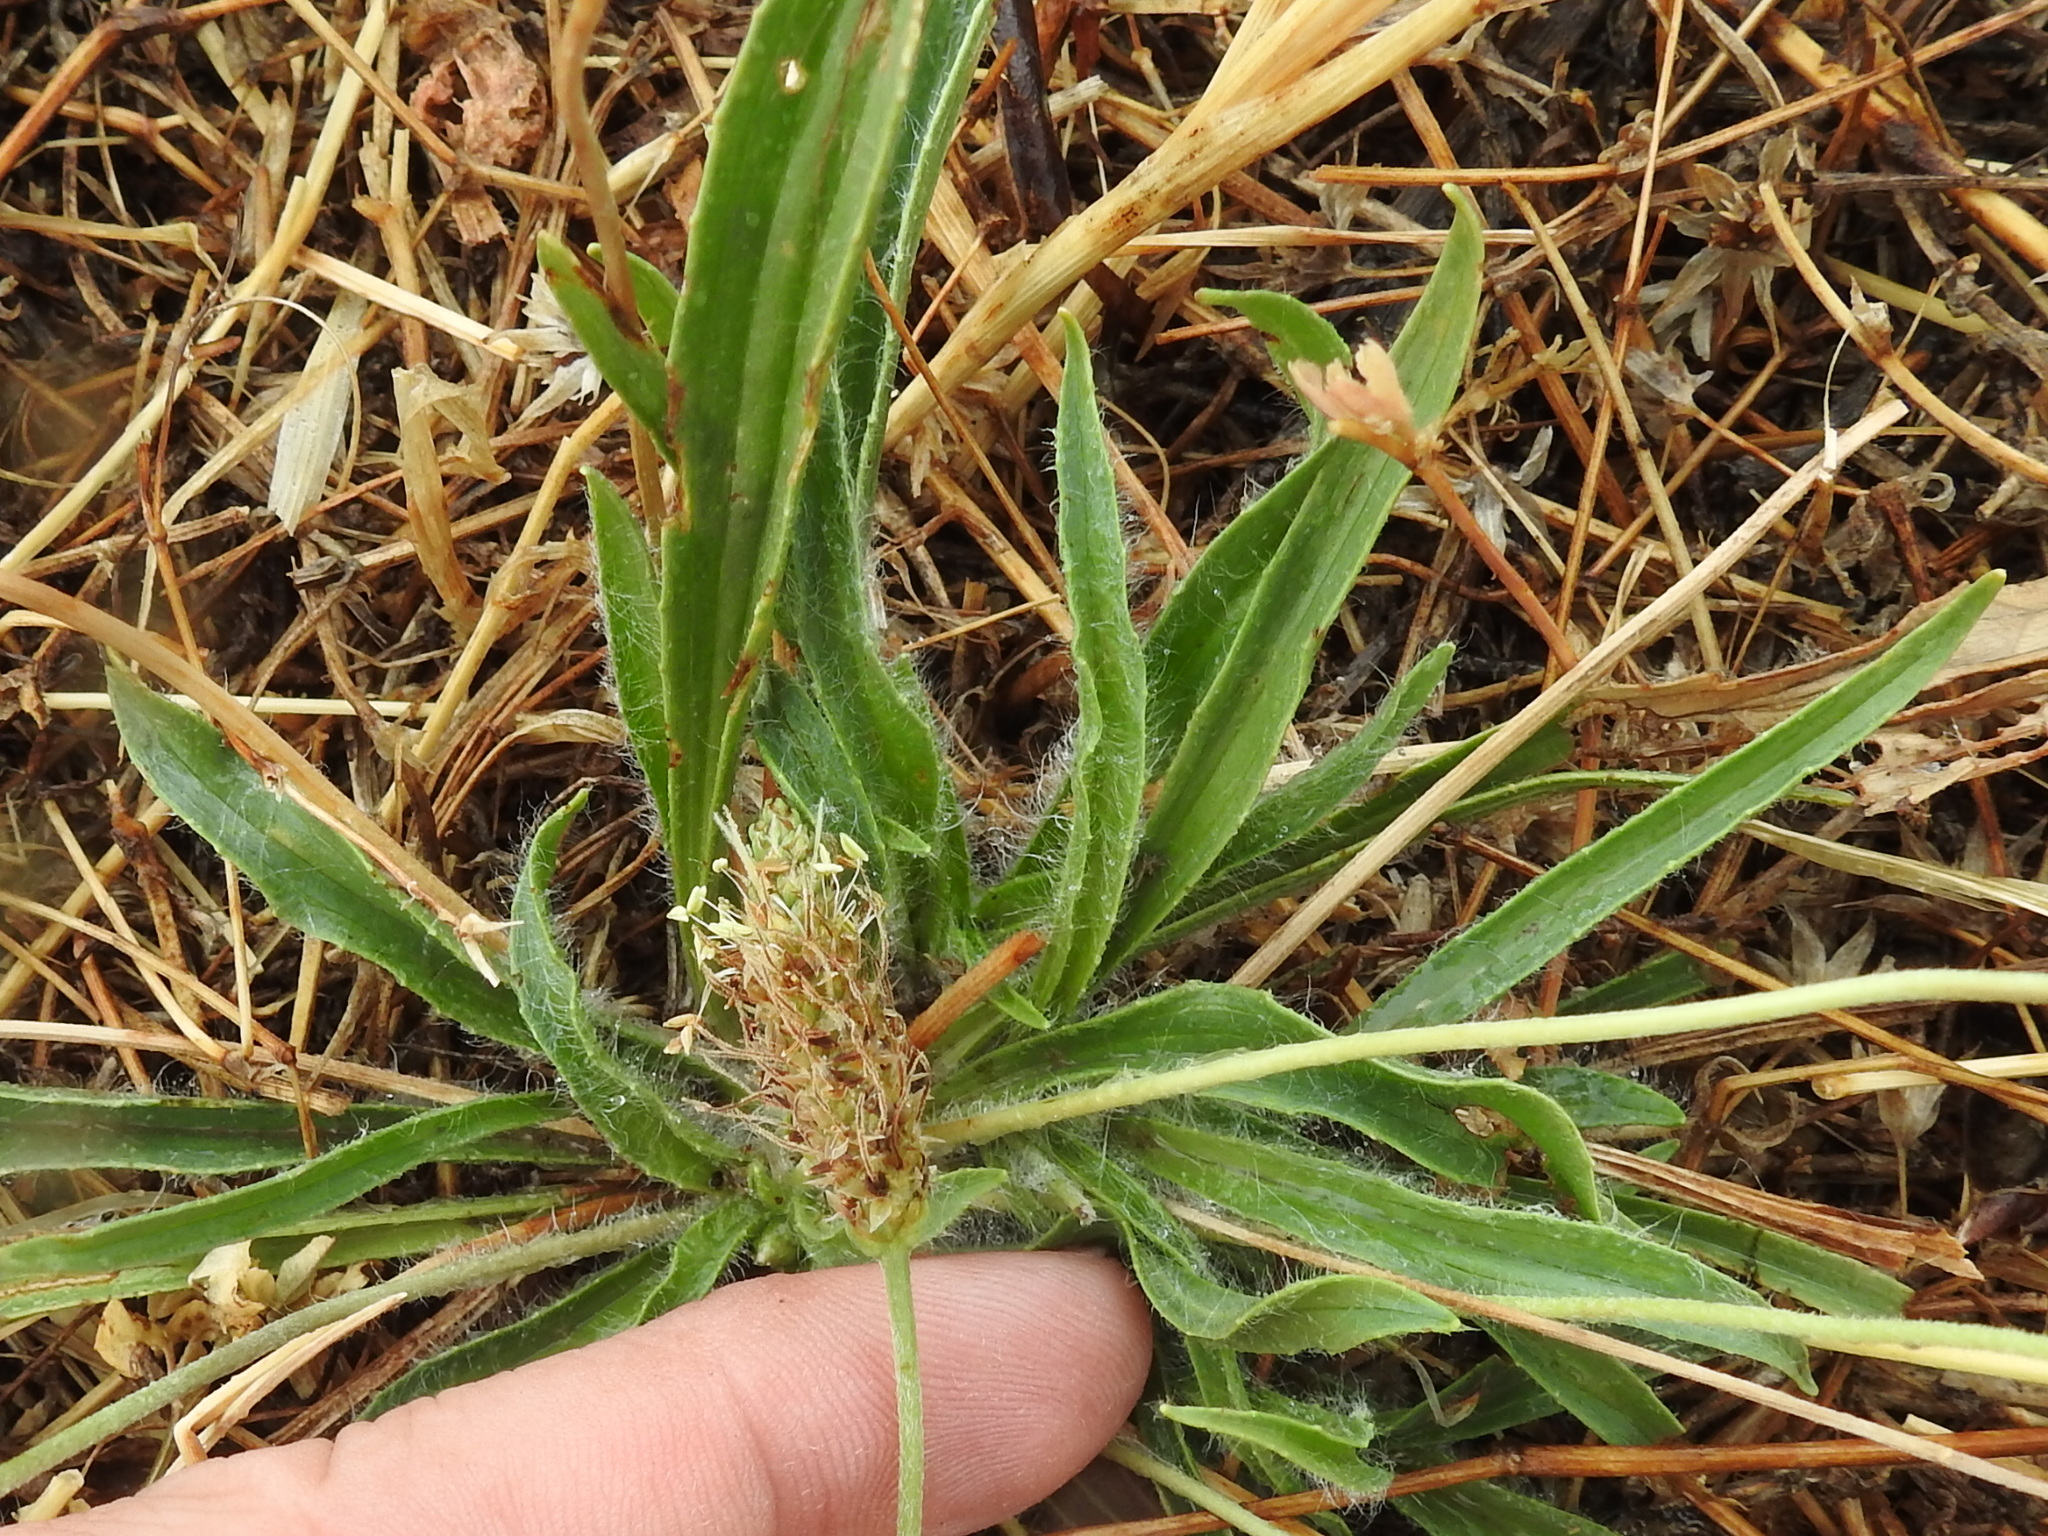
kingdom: Plantae
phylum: Tracheophyta
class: Magnoliopsida
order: Lamiales
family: Plantaginaceae
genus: Plantago
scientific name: Plantago lanceolata
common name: Ribwort plantain
